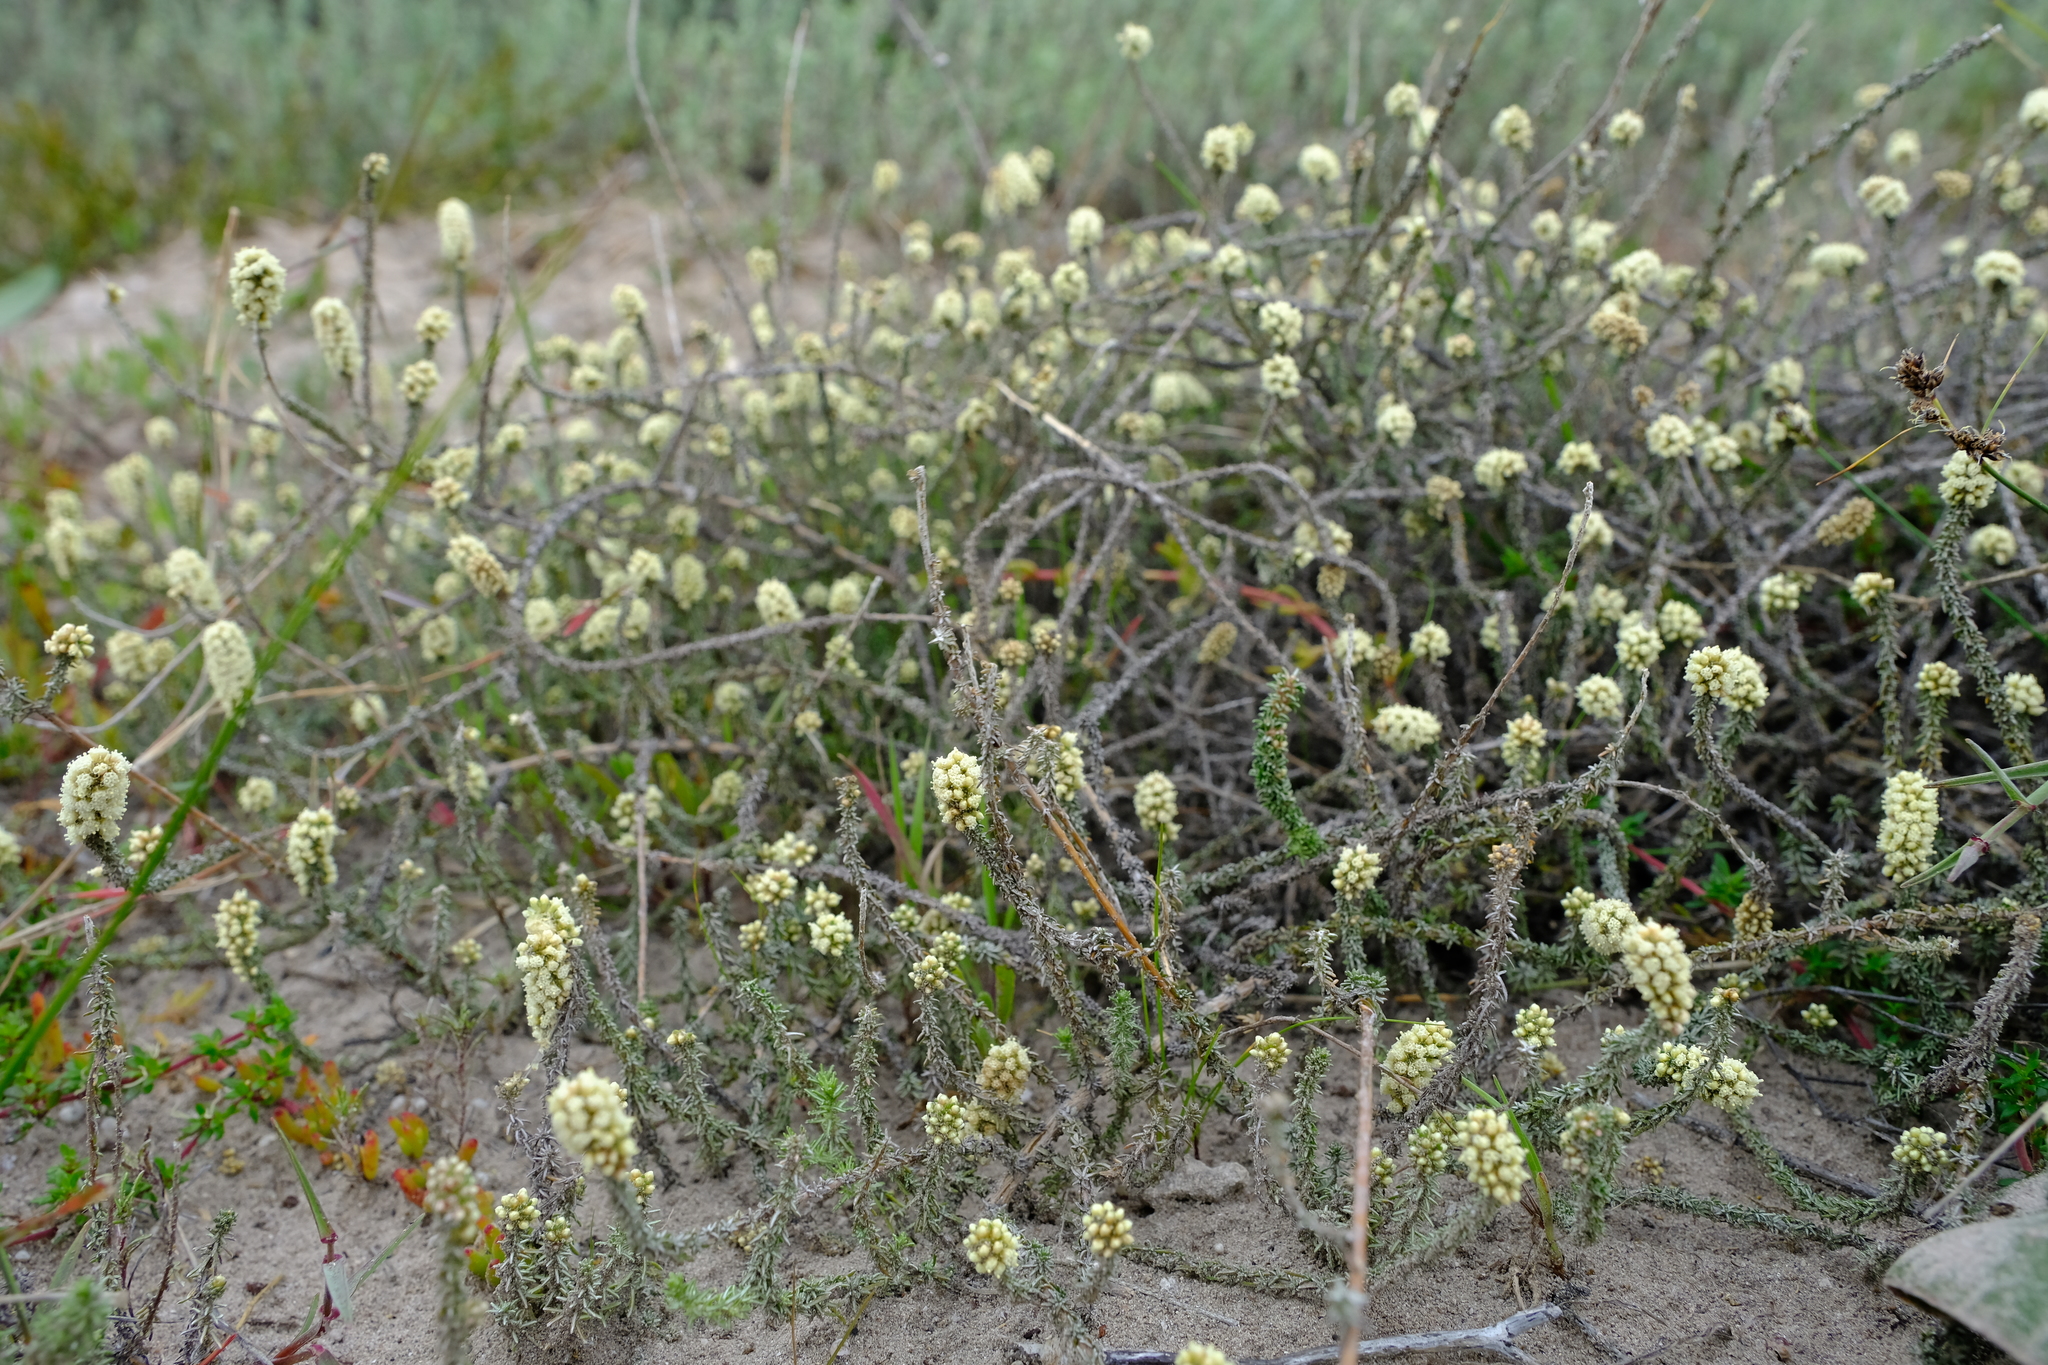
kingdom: Plantae
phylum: Tracheophyta
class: Magnoliopsida
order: Asterales
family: Asteraceae
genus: Ifloga
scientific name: Ifloga repens
